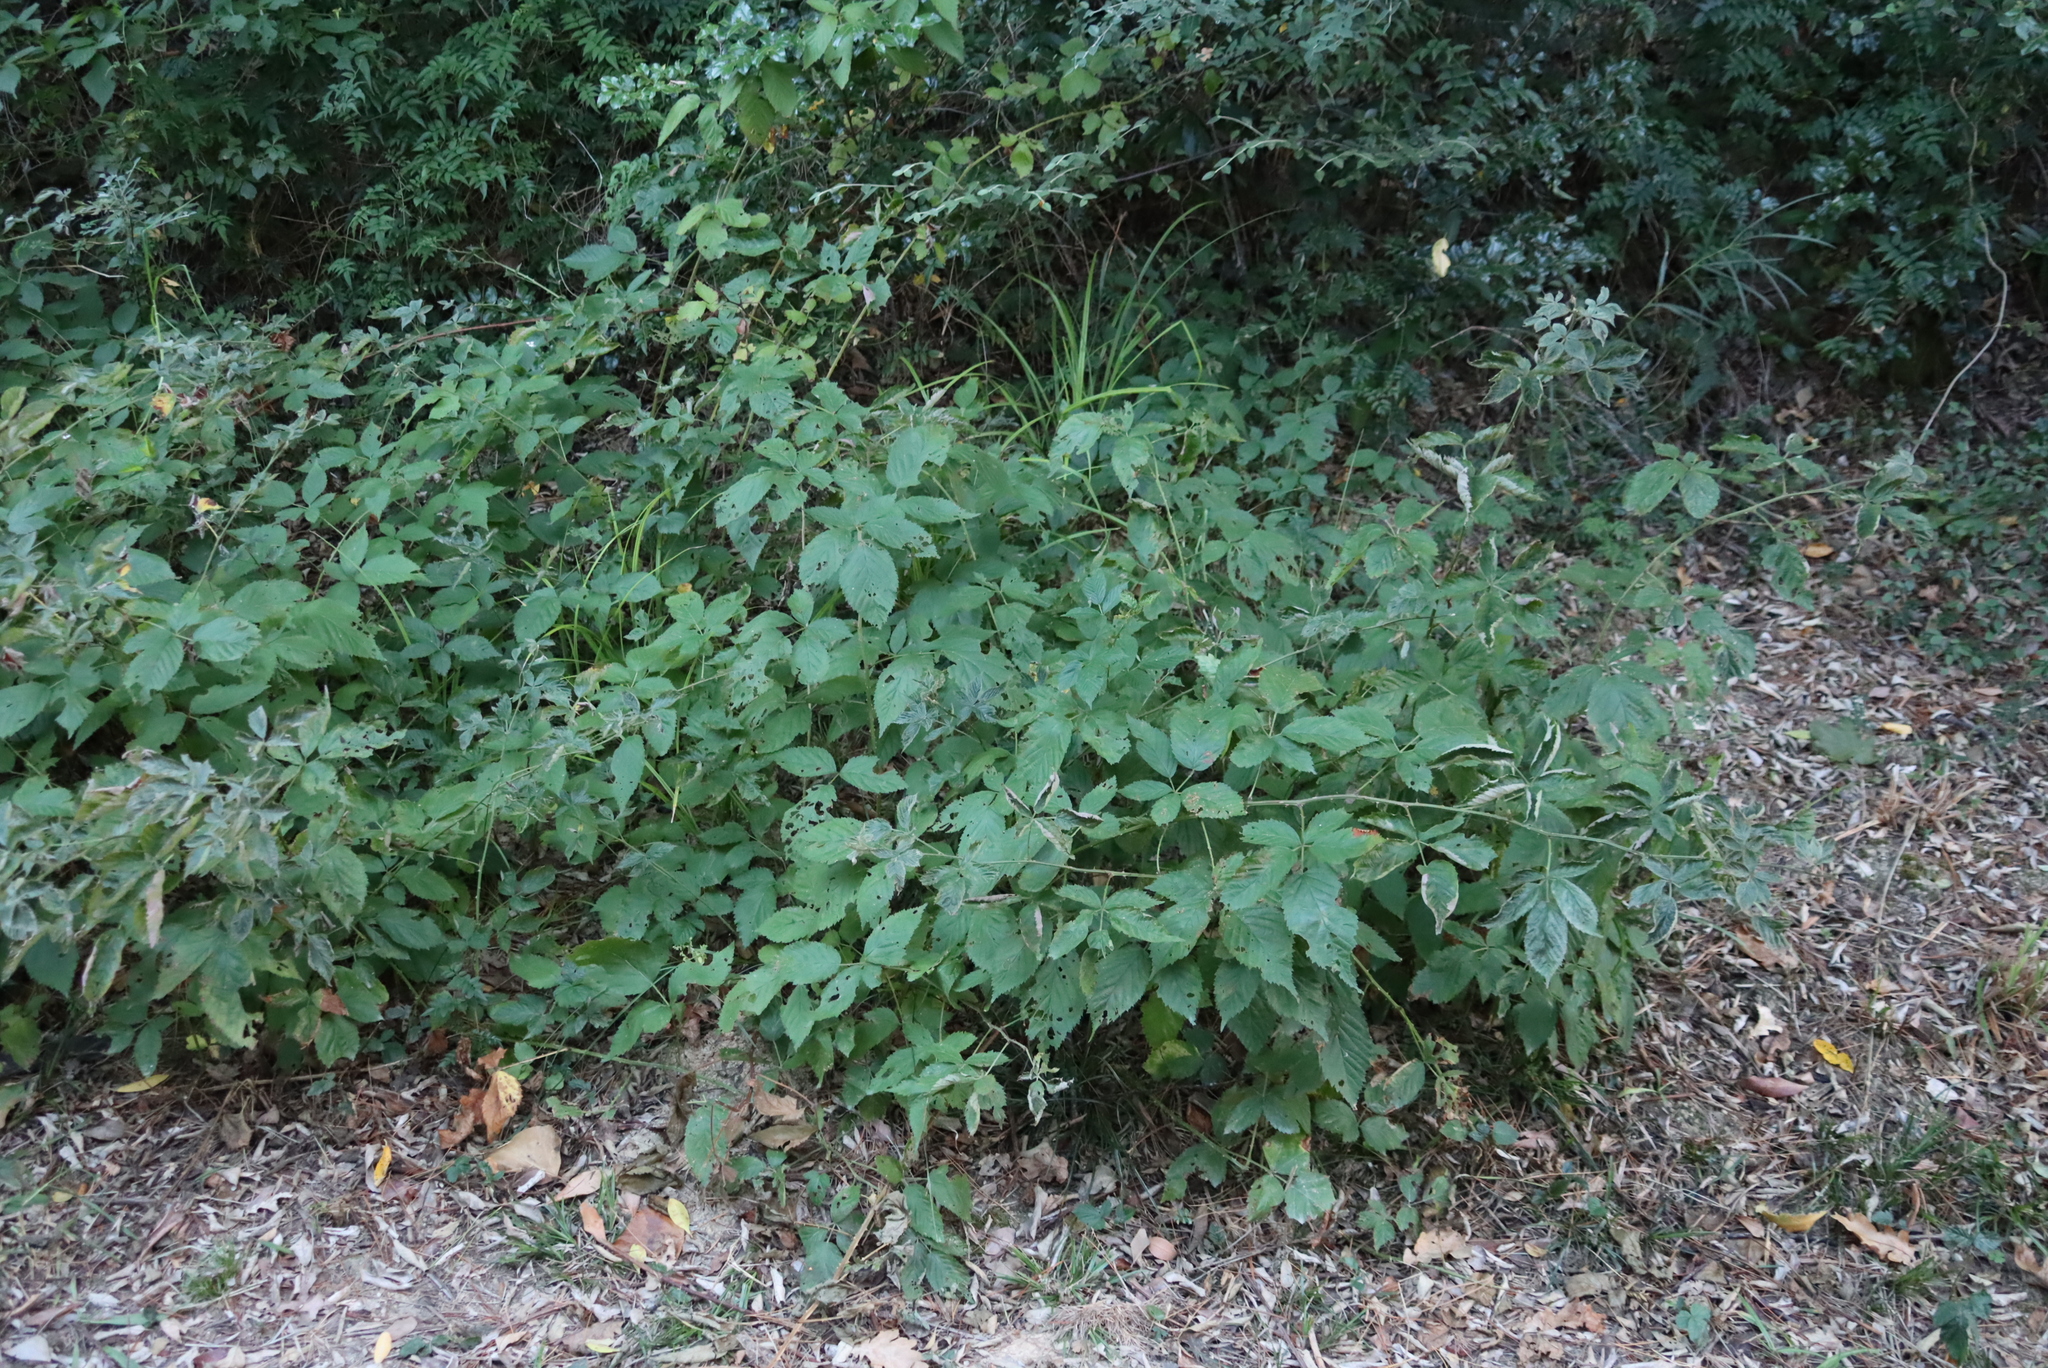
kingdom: Plantae
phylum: Tracheophyta
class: Magnoliopsida
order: Rosales
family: Rosaceae
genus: Rubus
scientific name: Rubus armeniacus
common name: Himalayan blackberry
